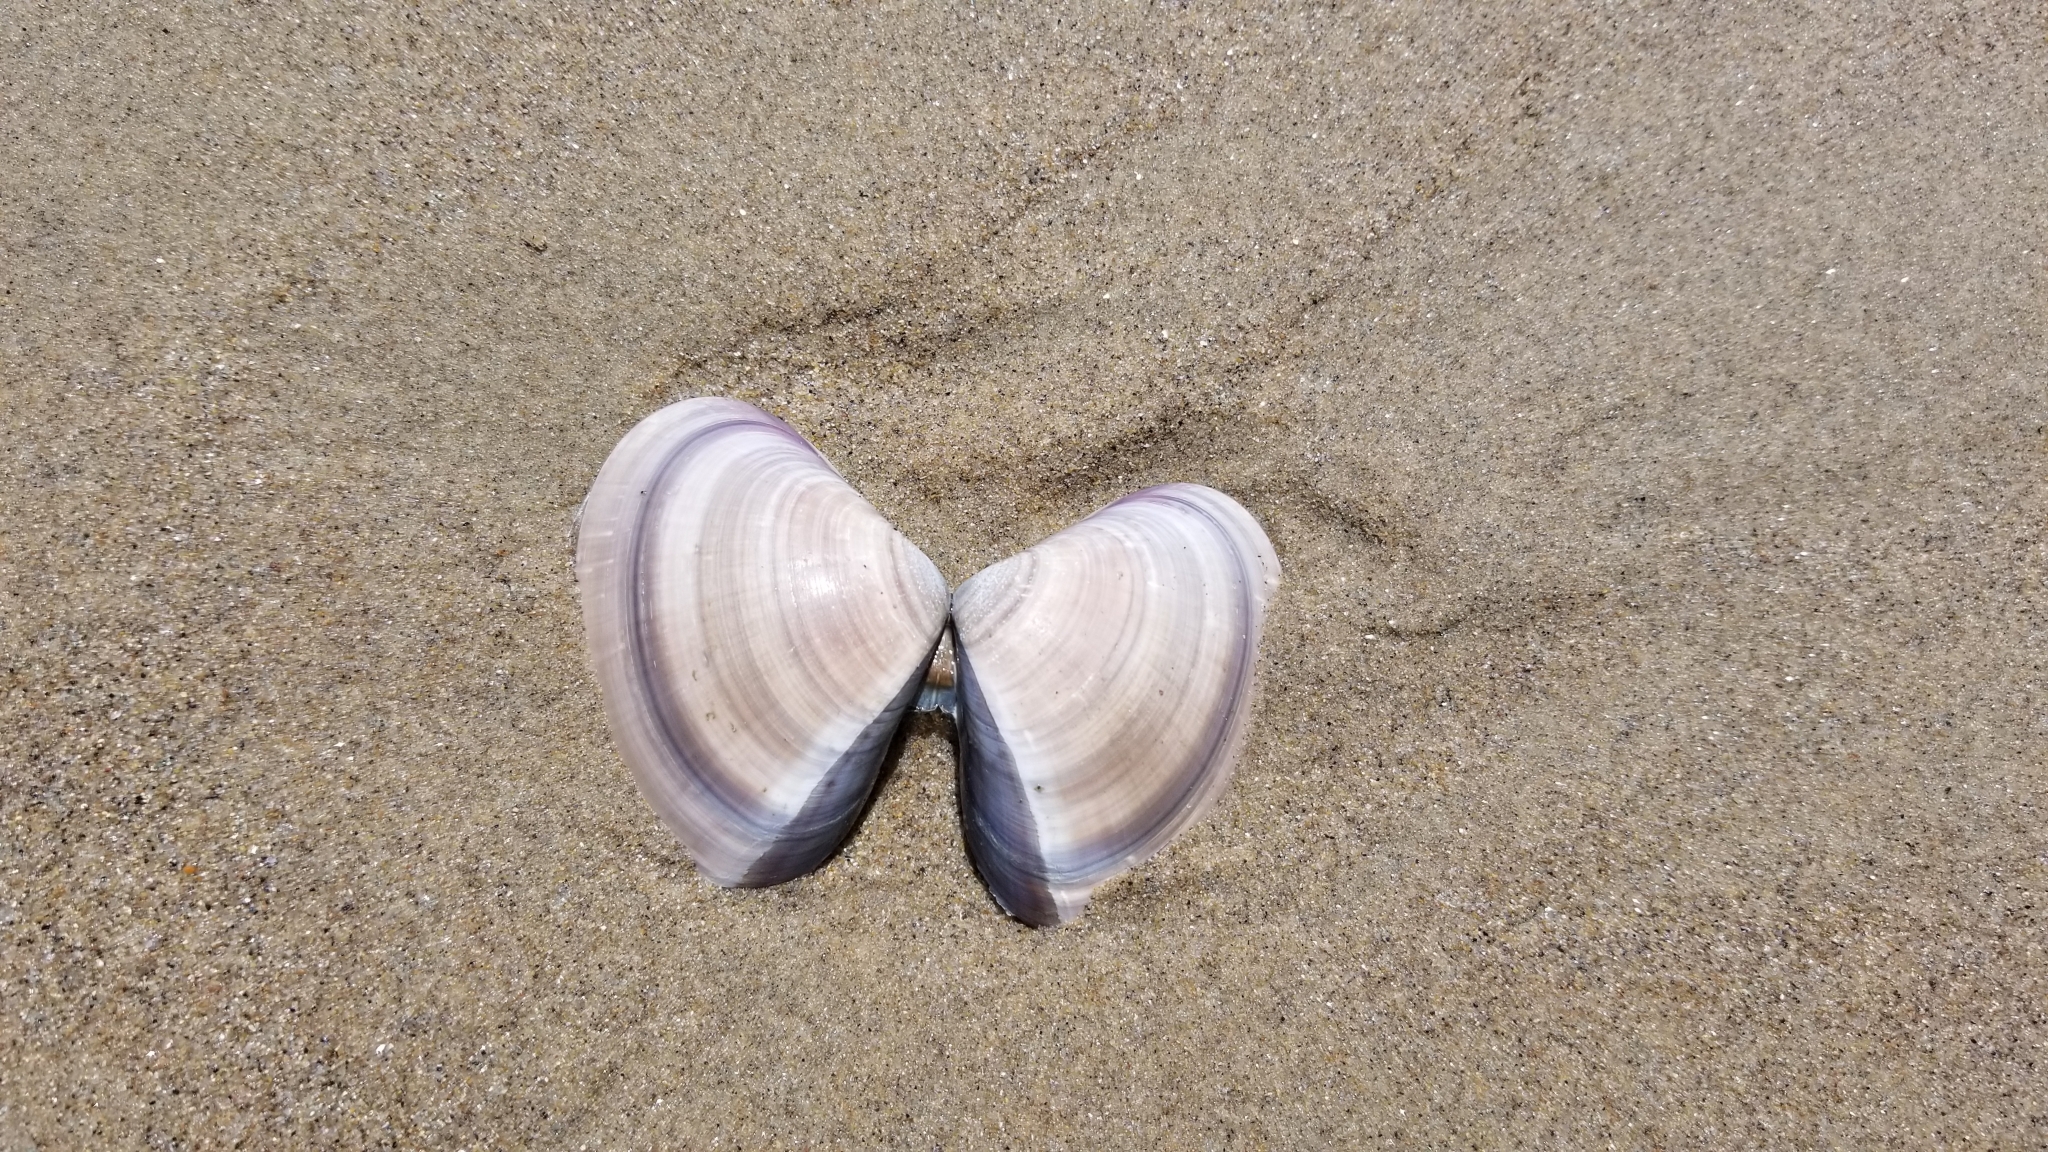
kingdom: Animalia
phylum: Mollusca
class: Bivalvia
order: Venerida
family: Veneridae
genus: Tivela
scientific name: Tivela stultorum
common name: Pismo clam
